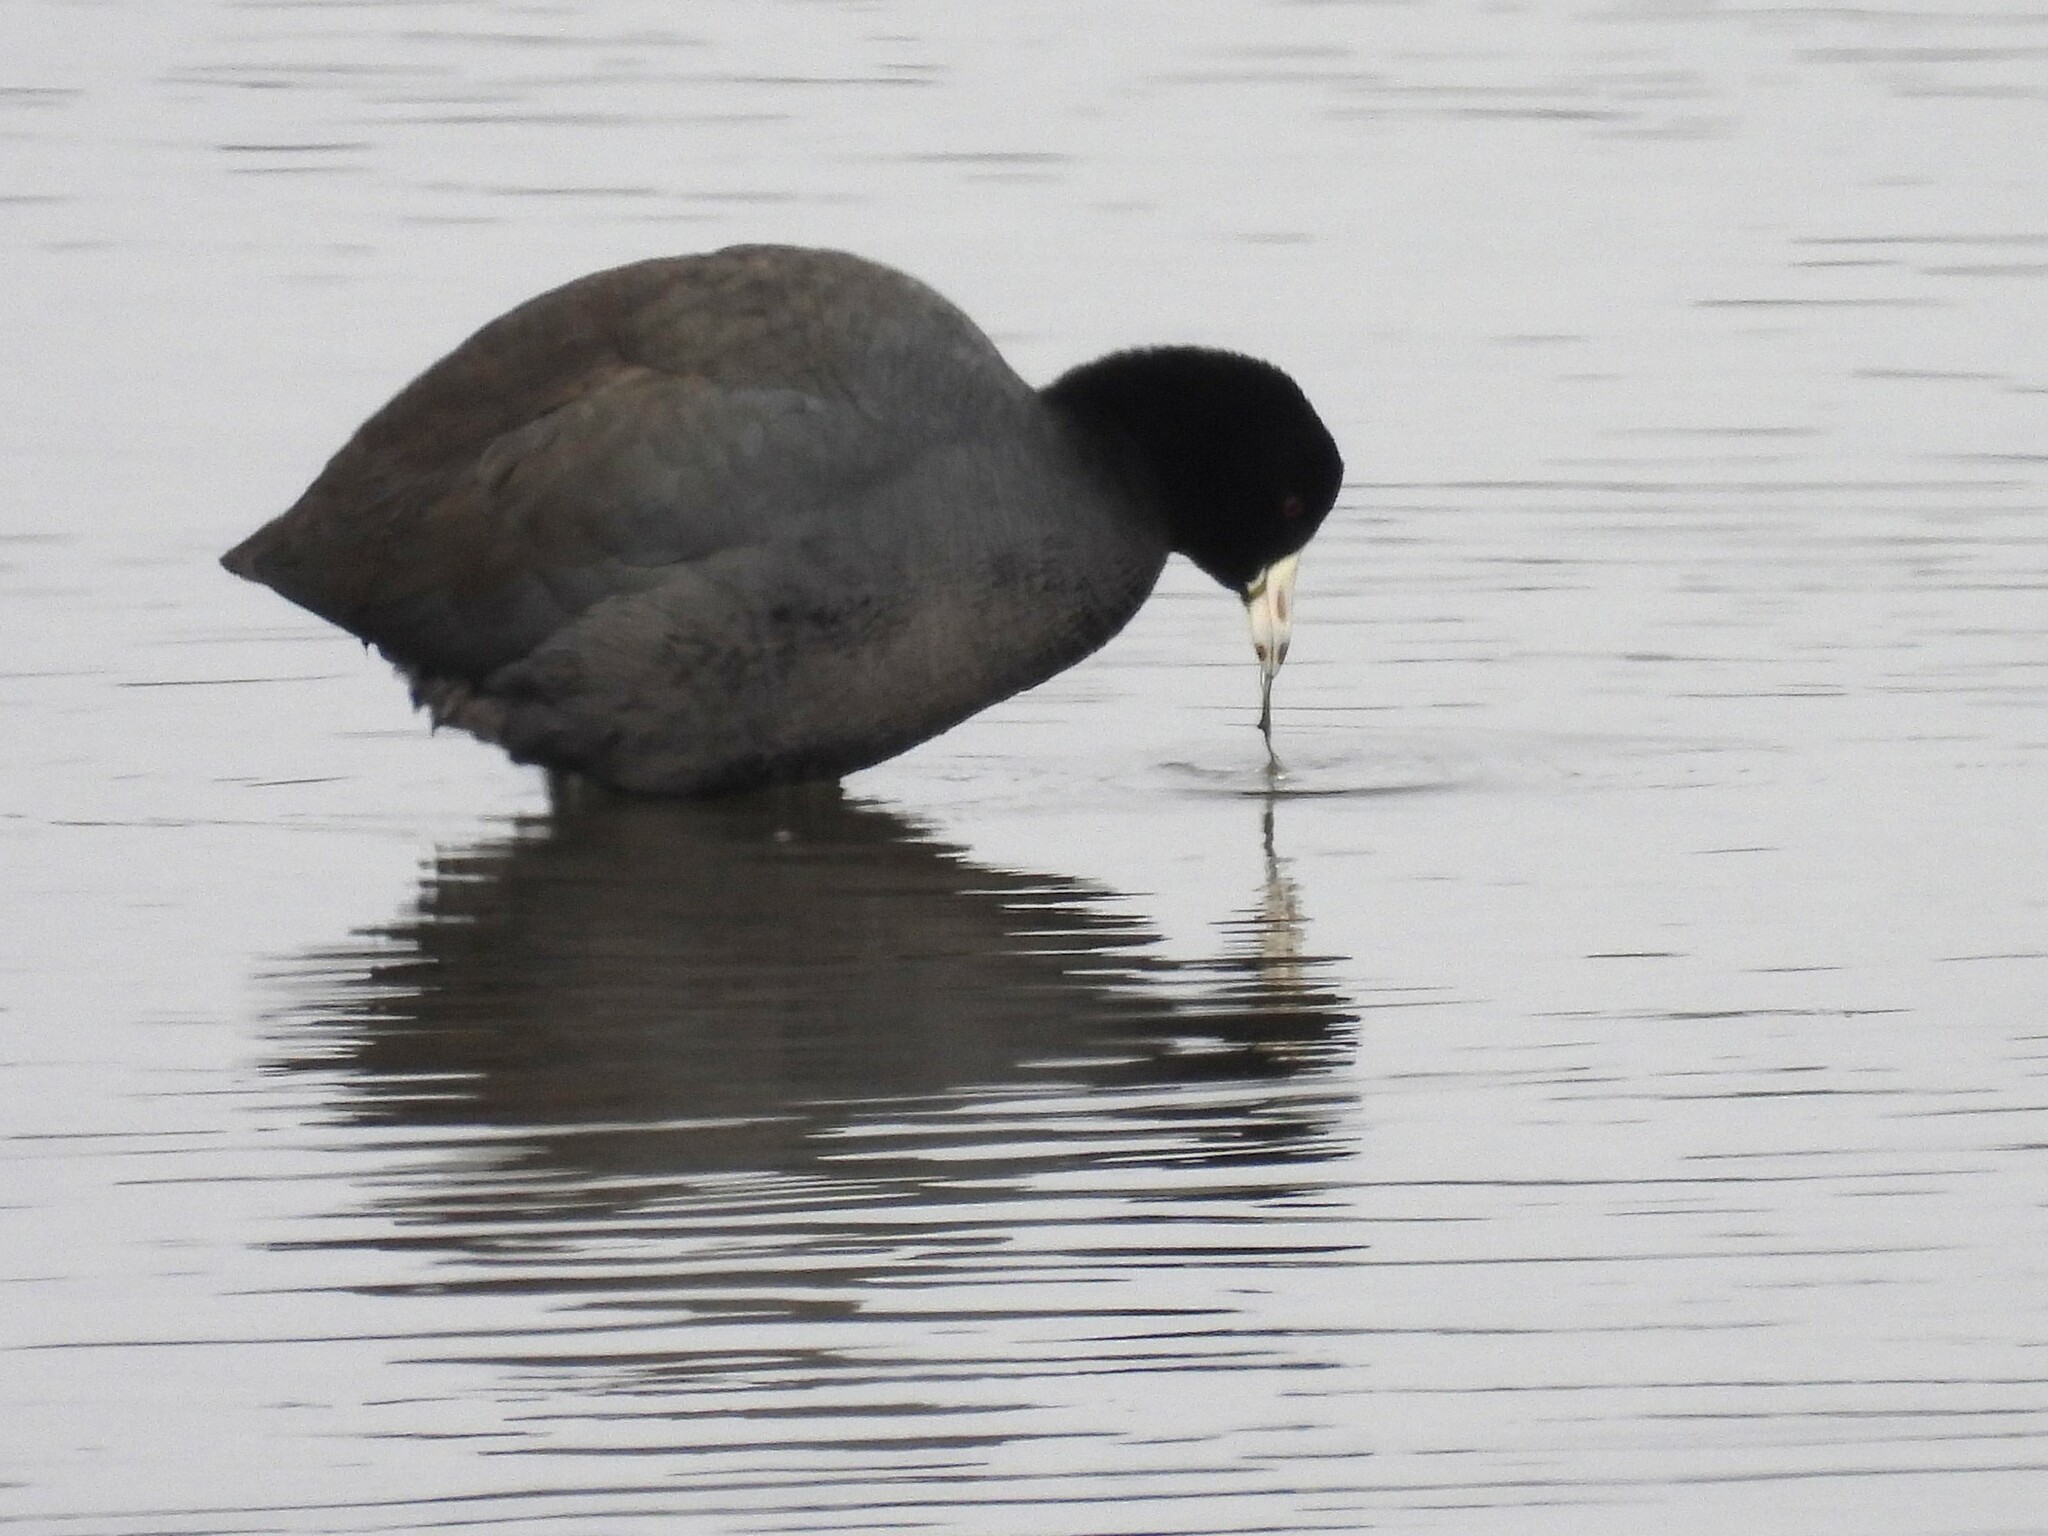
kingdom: Animalia
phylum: Chordata
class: Aves
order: Gruiformes
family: Rallidae
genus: Fulica
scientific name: Fulica americana
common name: American coot
